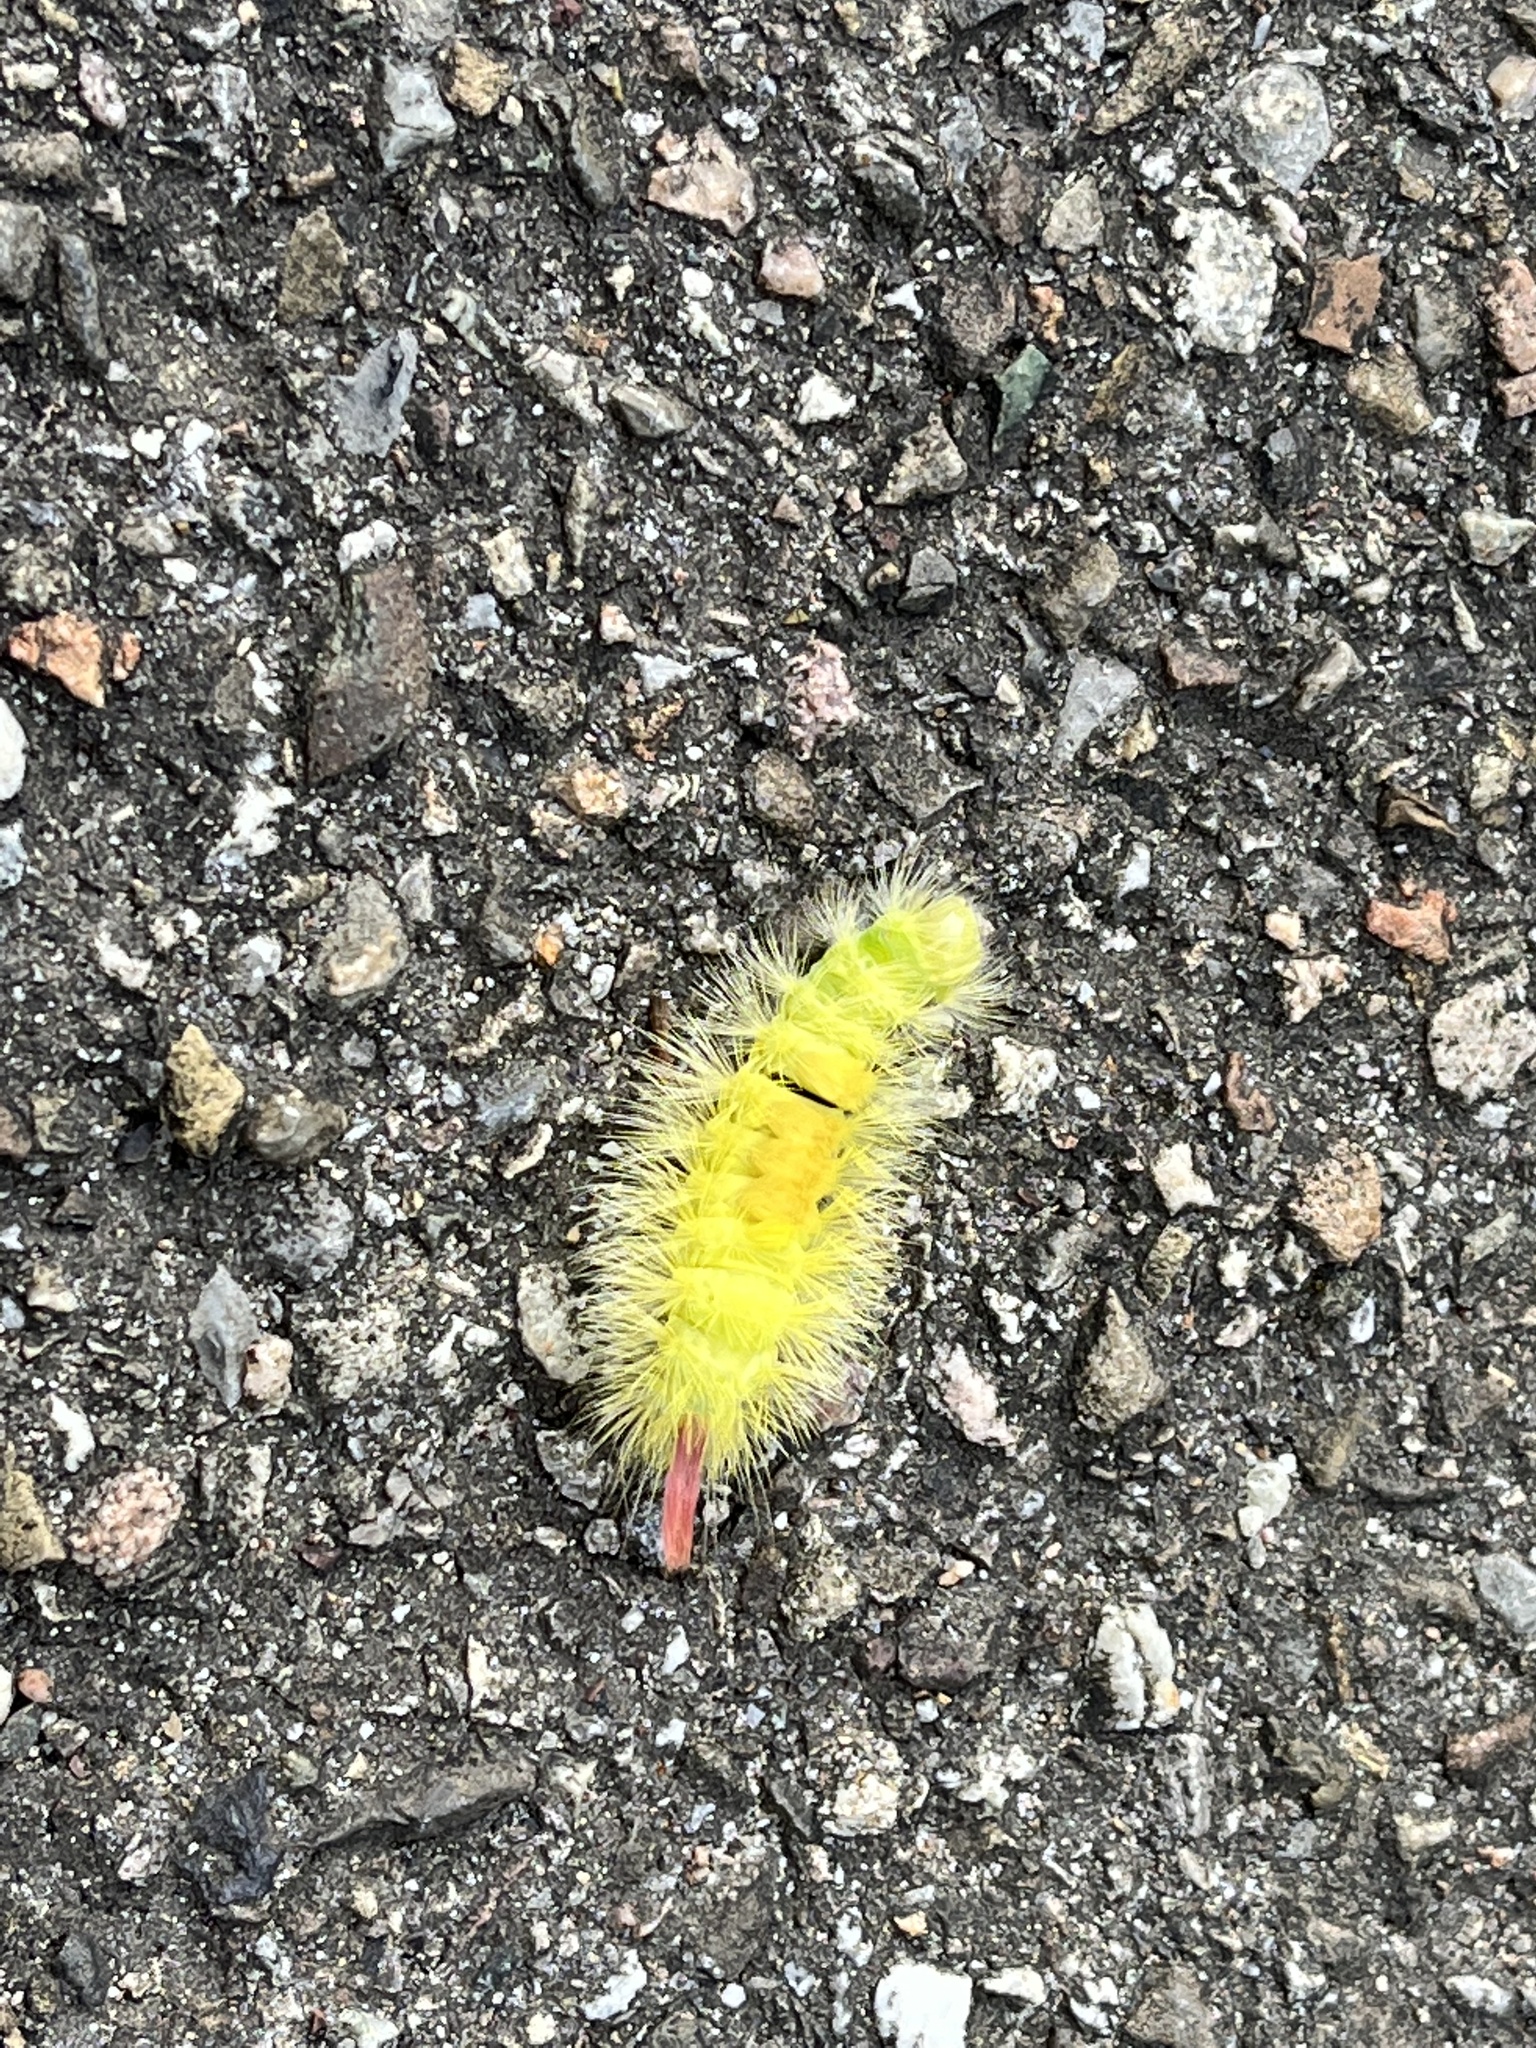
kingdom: Animalia
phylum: Arthropoda
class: Insecta
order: Lepidoptera
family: Erebidae
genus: Calliteara
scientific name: Calliteara pudibunda
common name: Pale tussock
